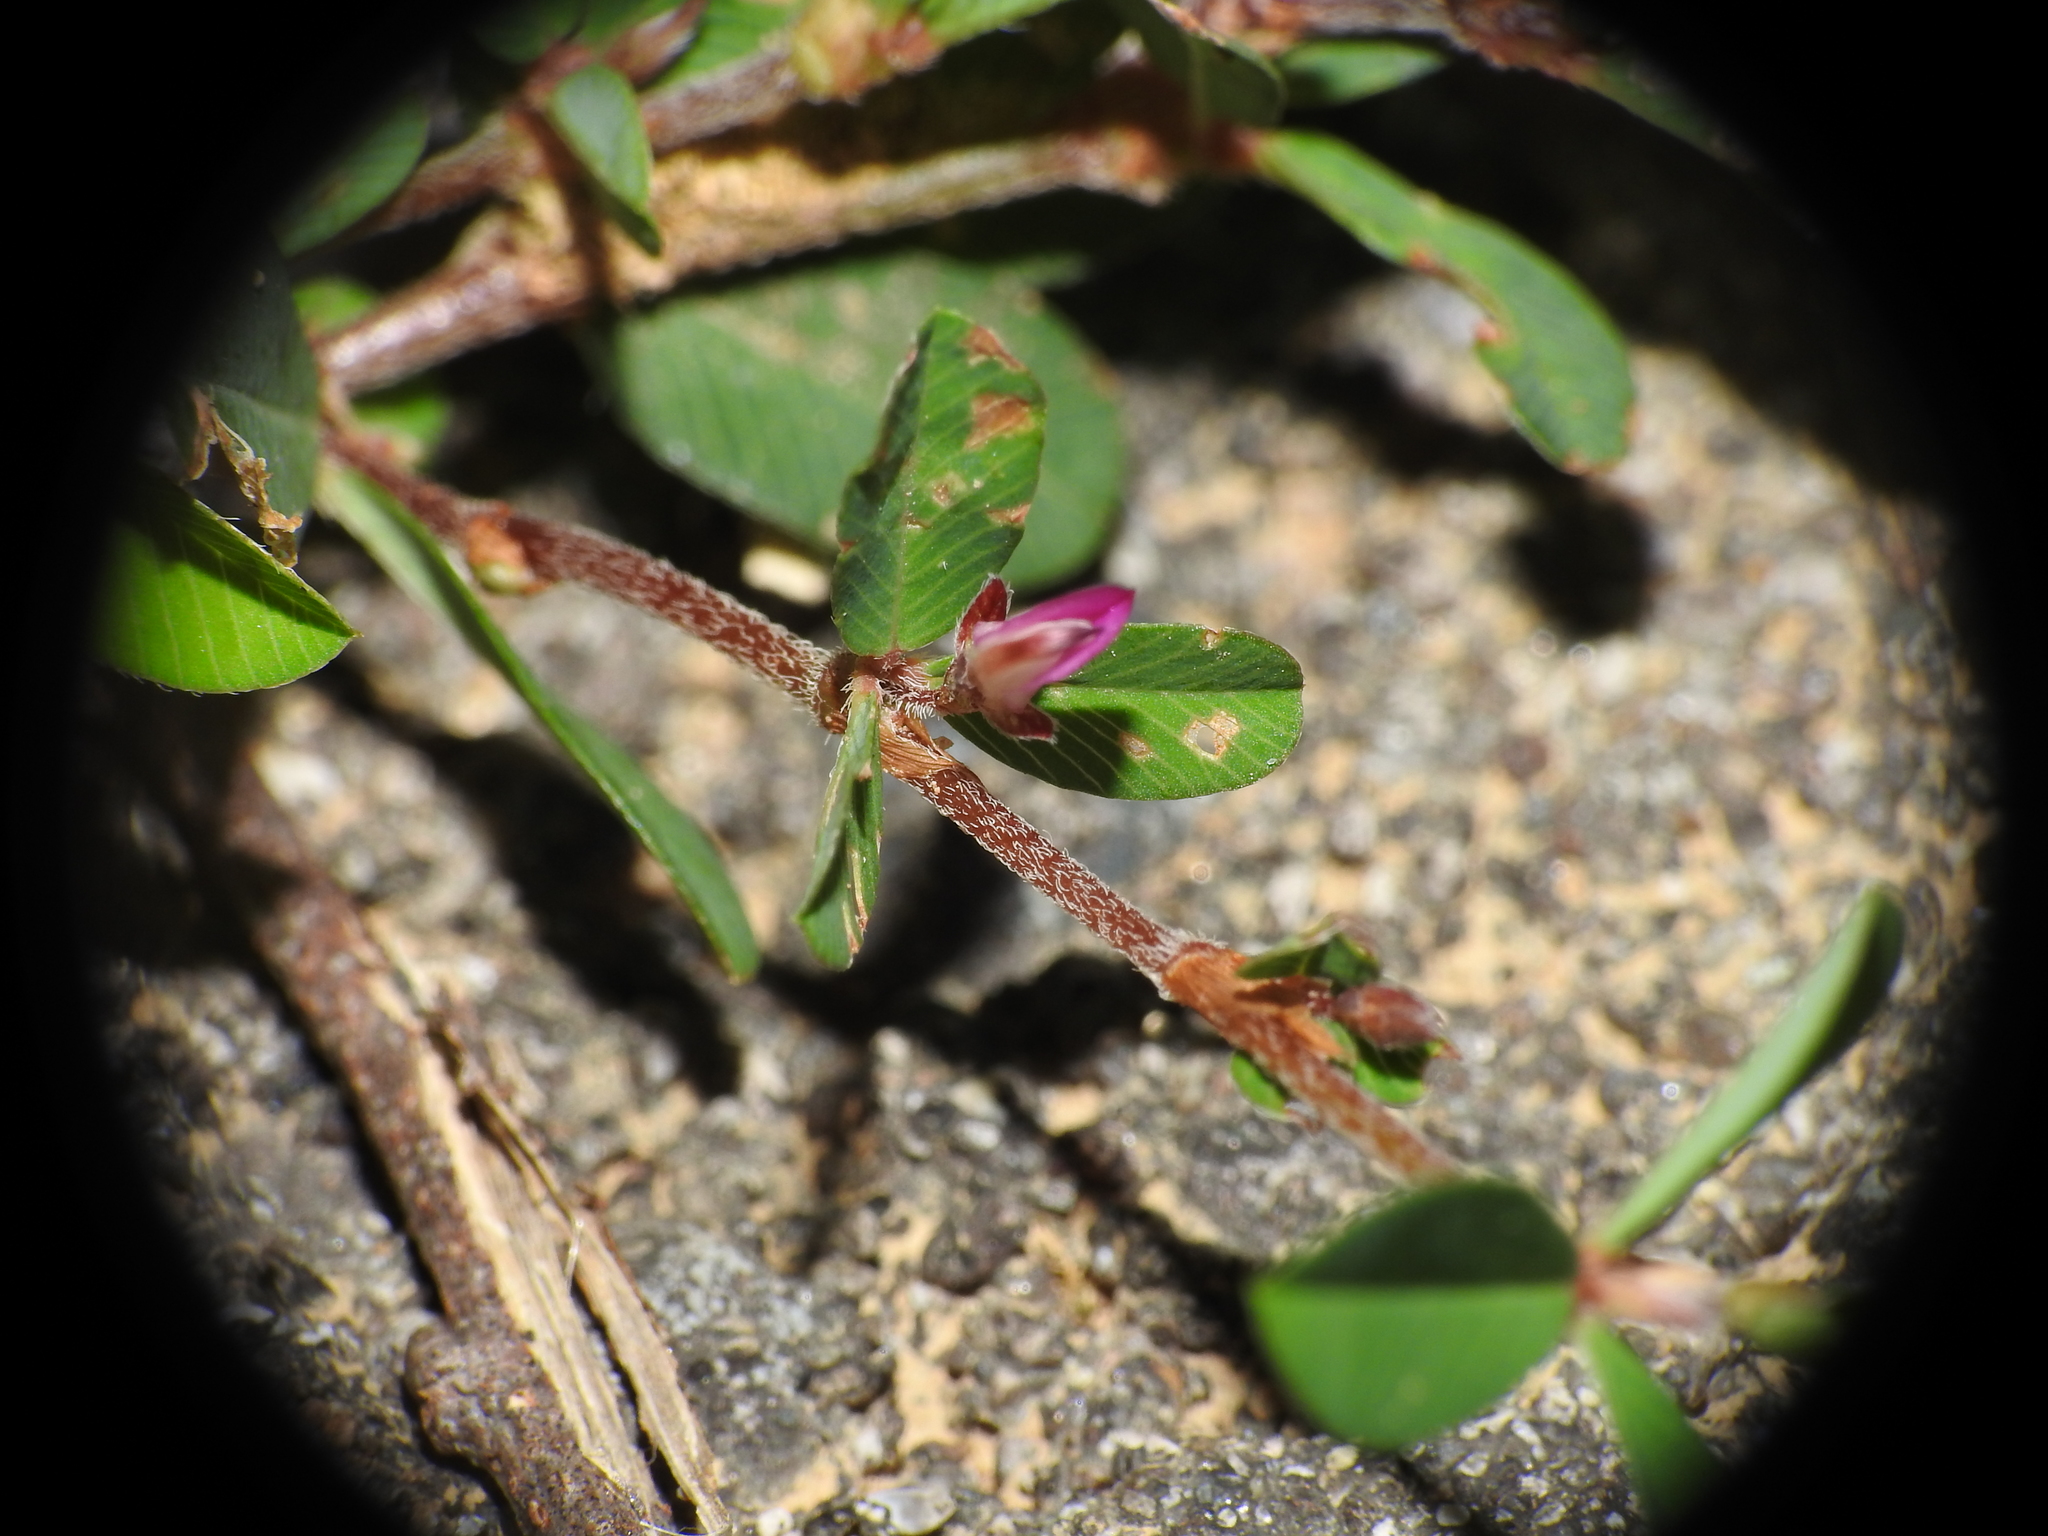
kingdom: Plantae
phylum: Tracheophyta
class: Magnoliopsida
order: Fabales
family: Fabaceae
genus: Kummerowia
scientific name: Kummerowia striata
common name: Japanese clover
